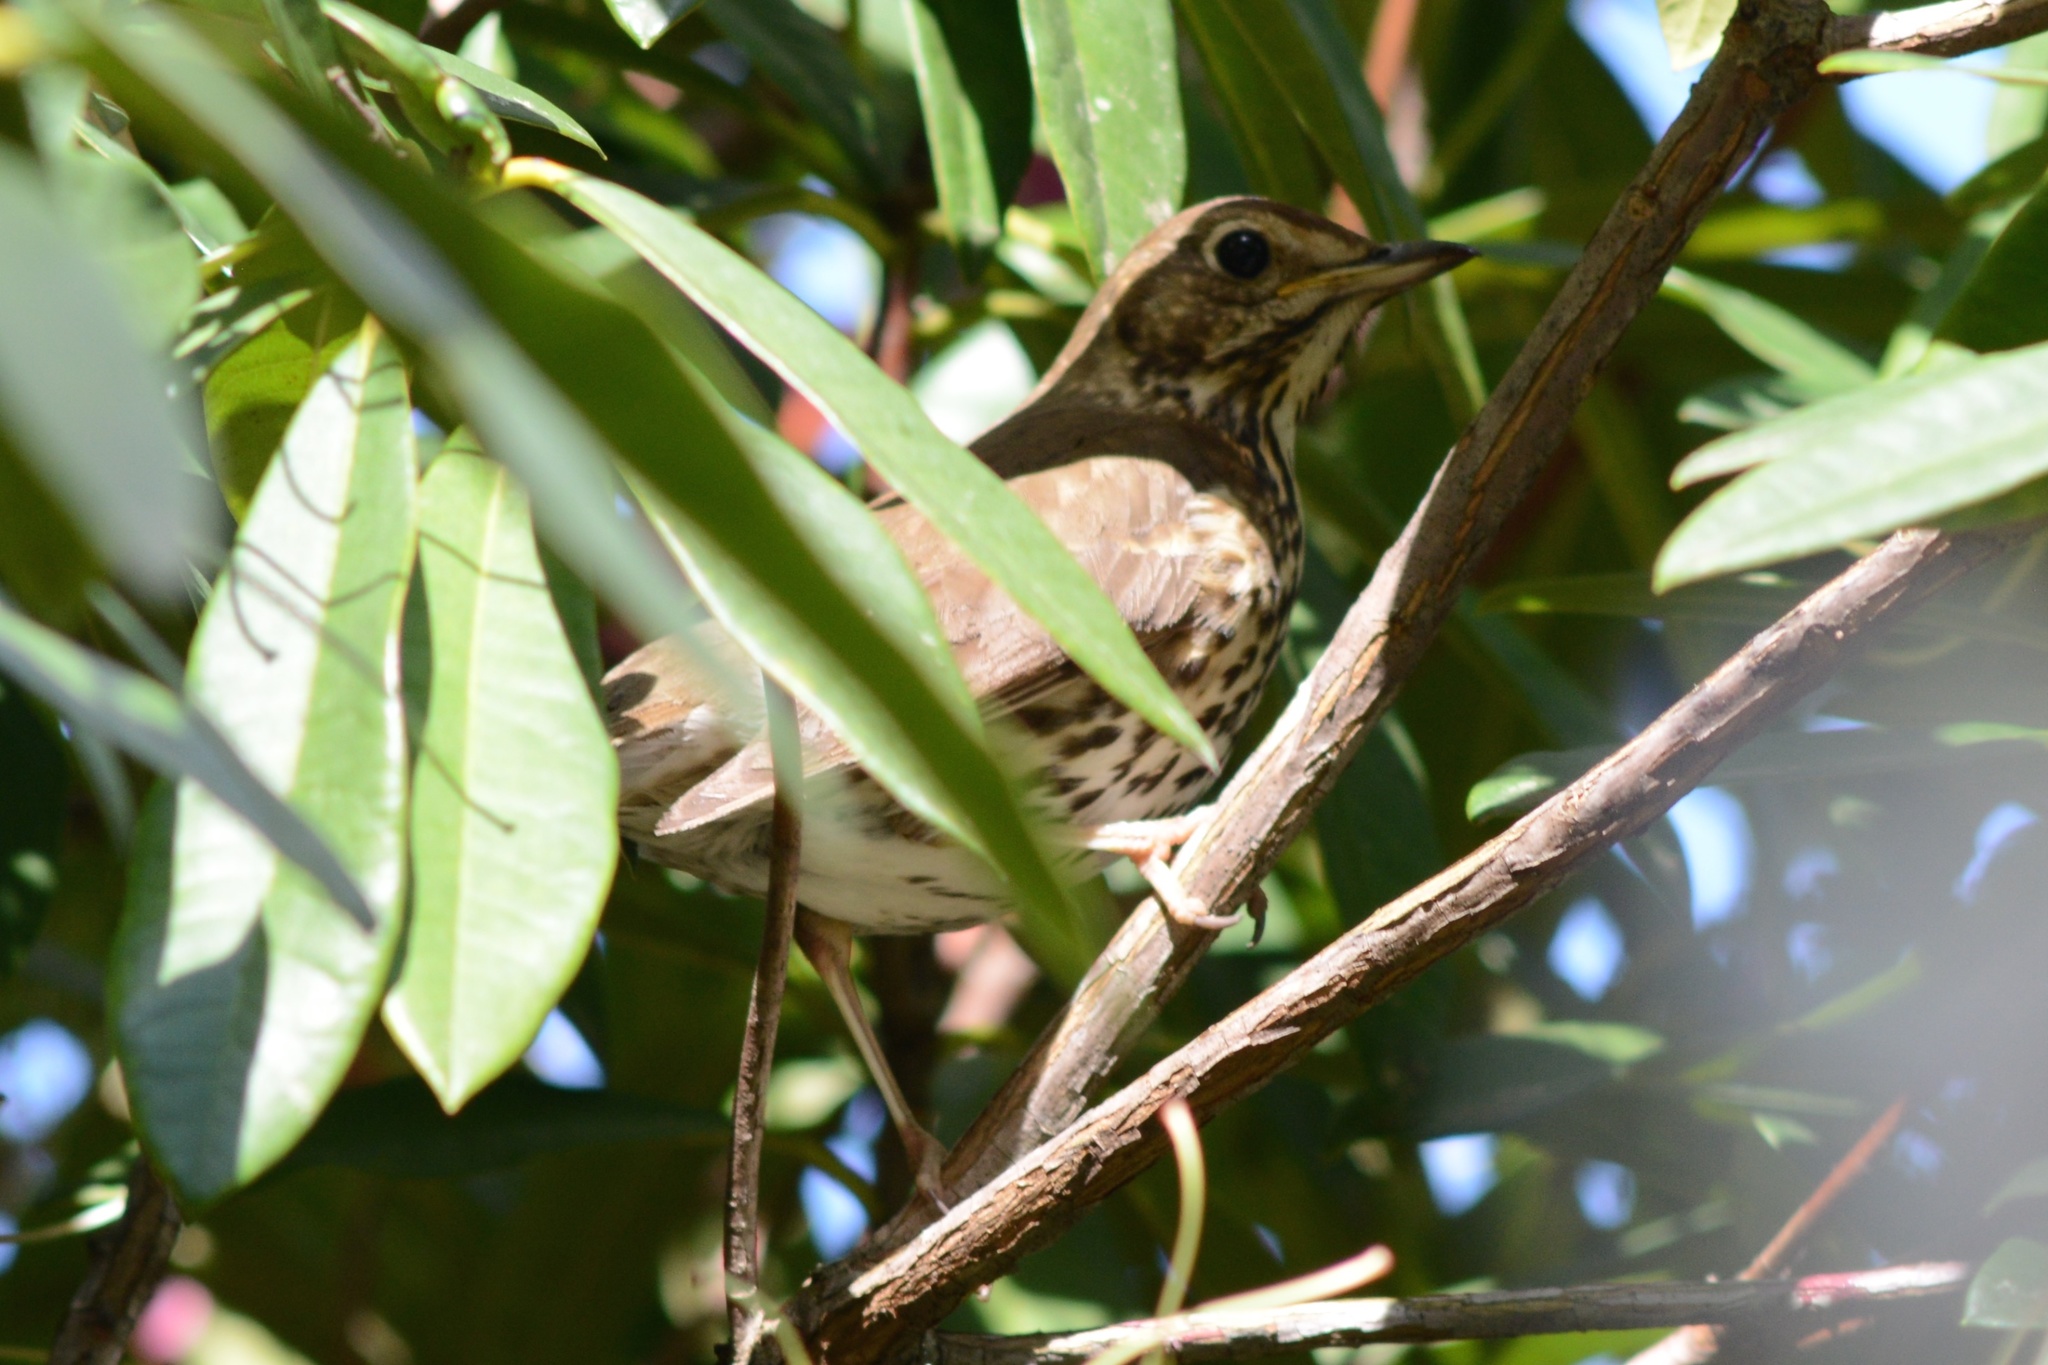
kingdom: Animalia
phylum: Chordata
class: Aves
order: Passeriformes
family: Turdidae
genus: Turdus
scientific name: Turdus philomelos
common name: Song thrush
